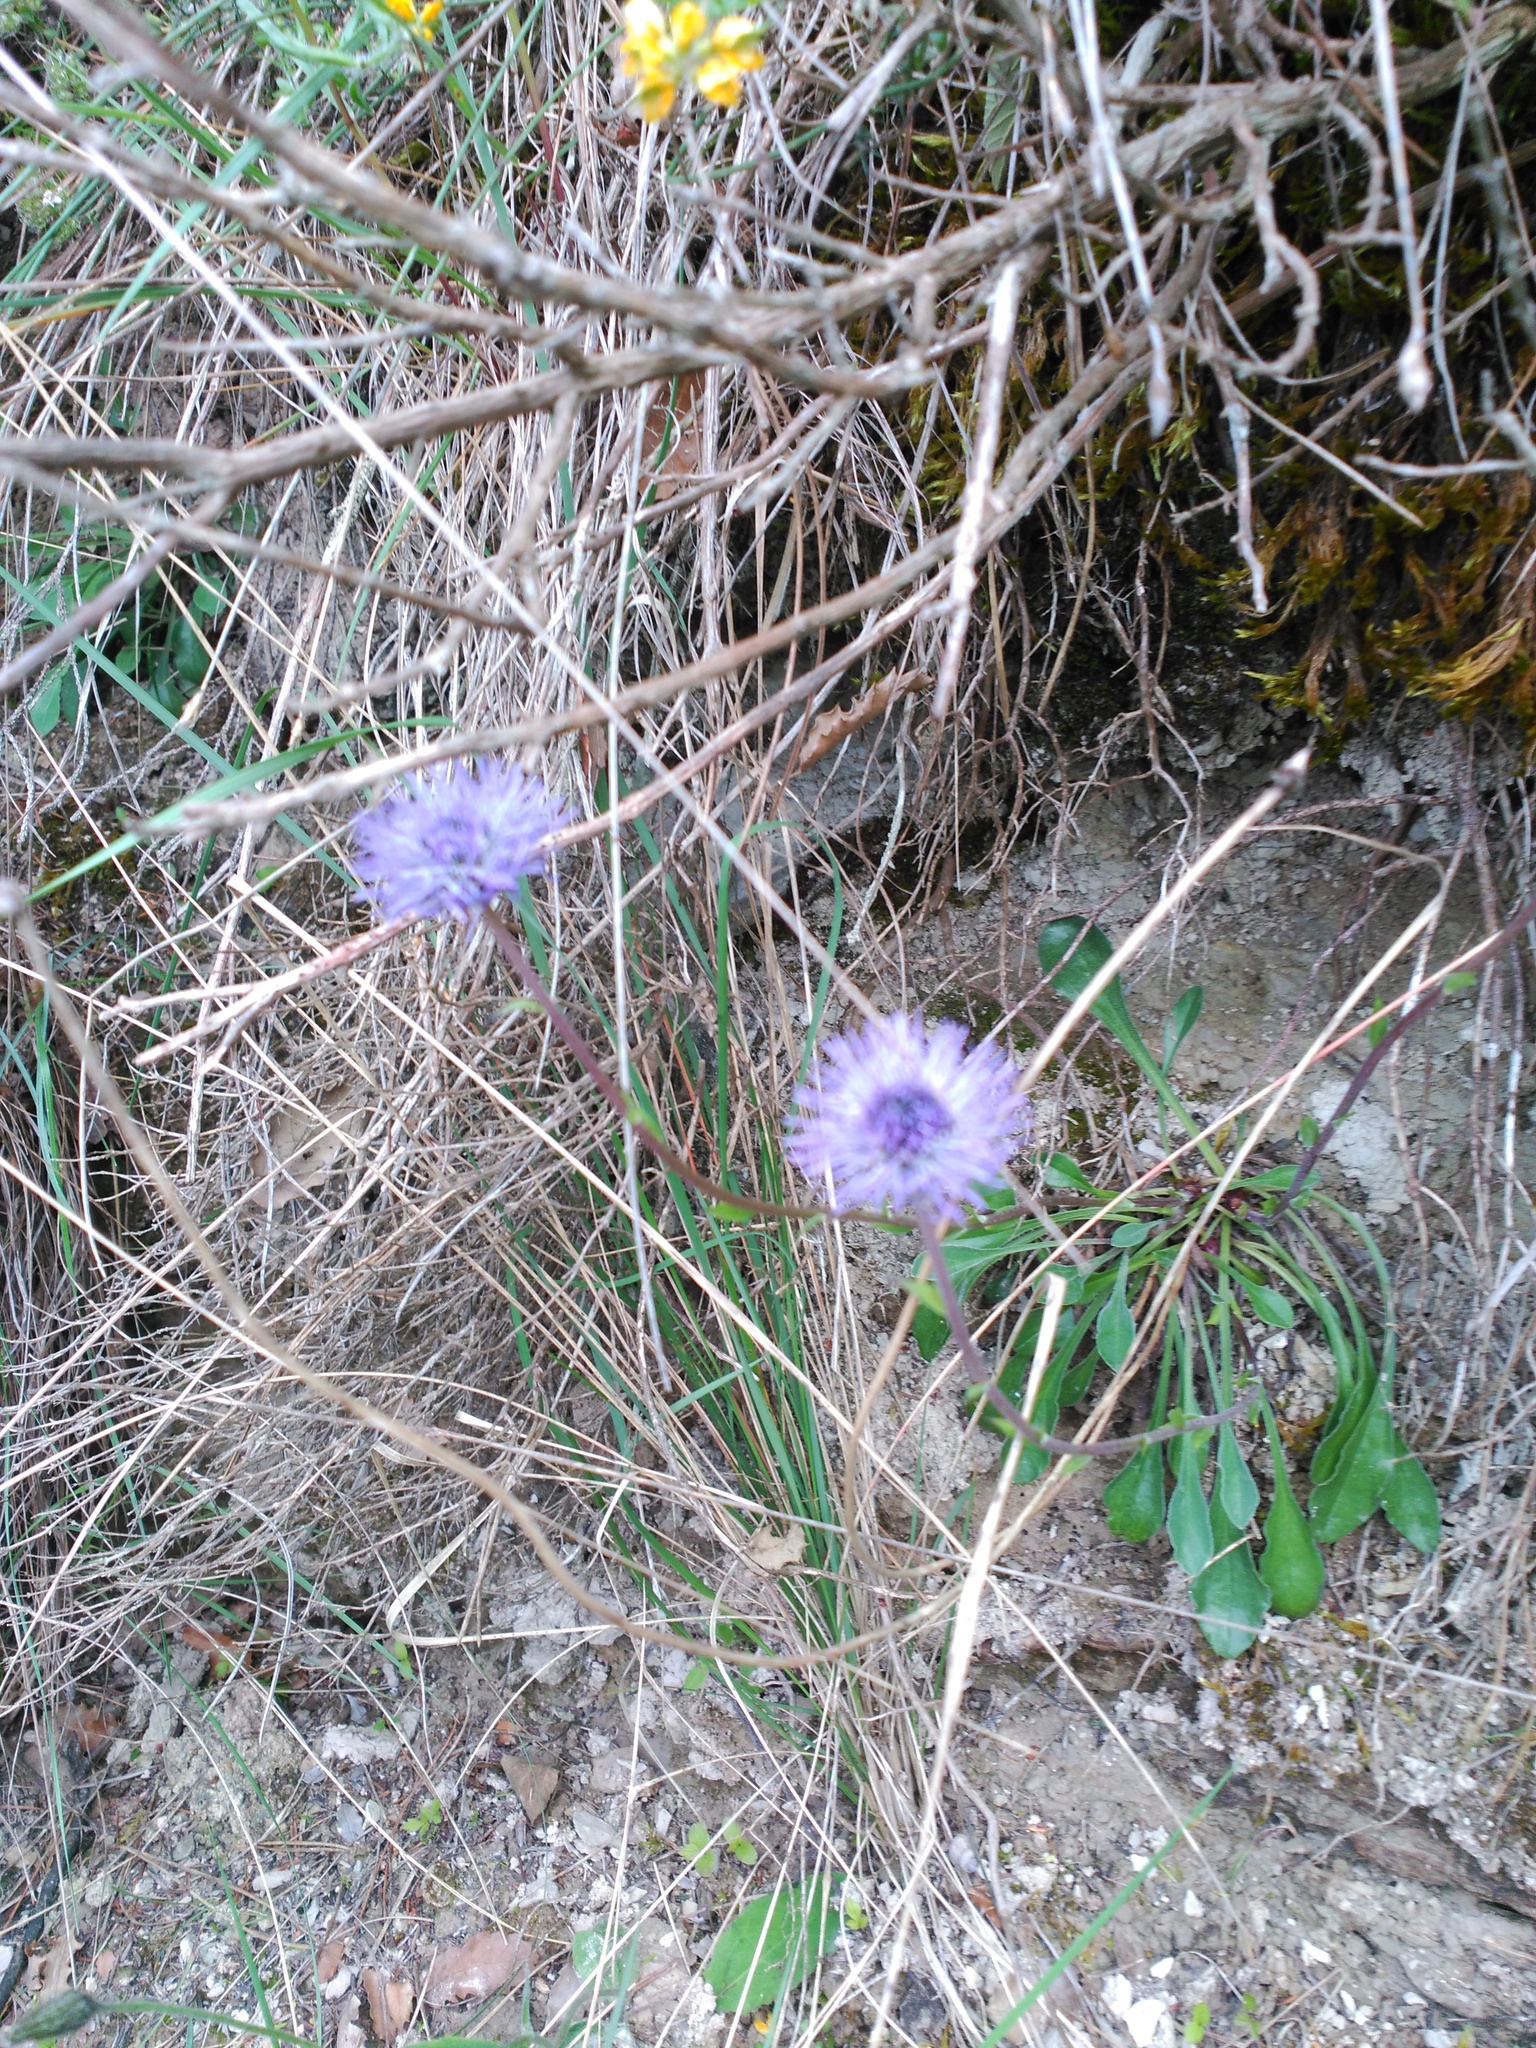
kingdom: Plantae
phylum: Tracheophyta
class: Magnoliopsida
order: Lamiales
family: Plantaginaceae
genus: Globularia
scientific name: Globularia vulgaris
